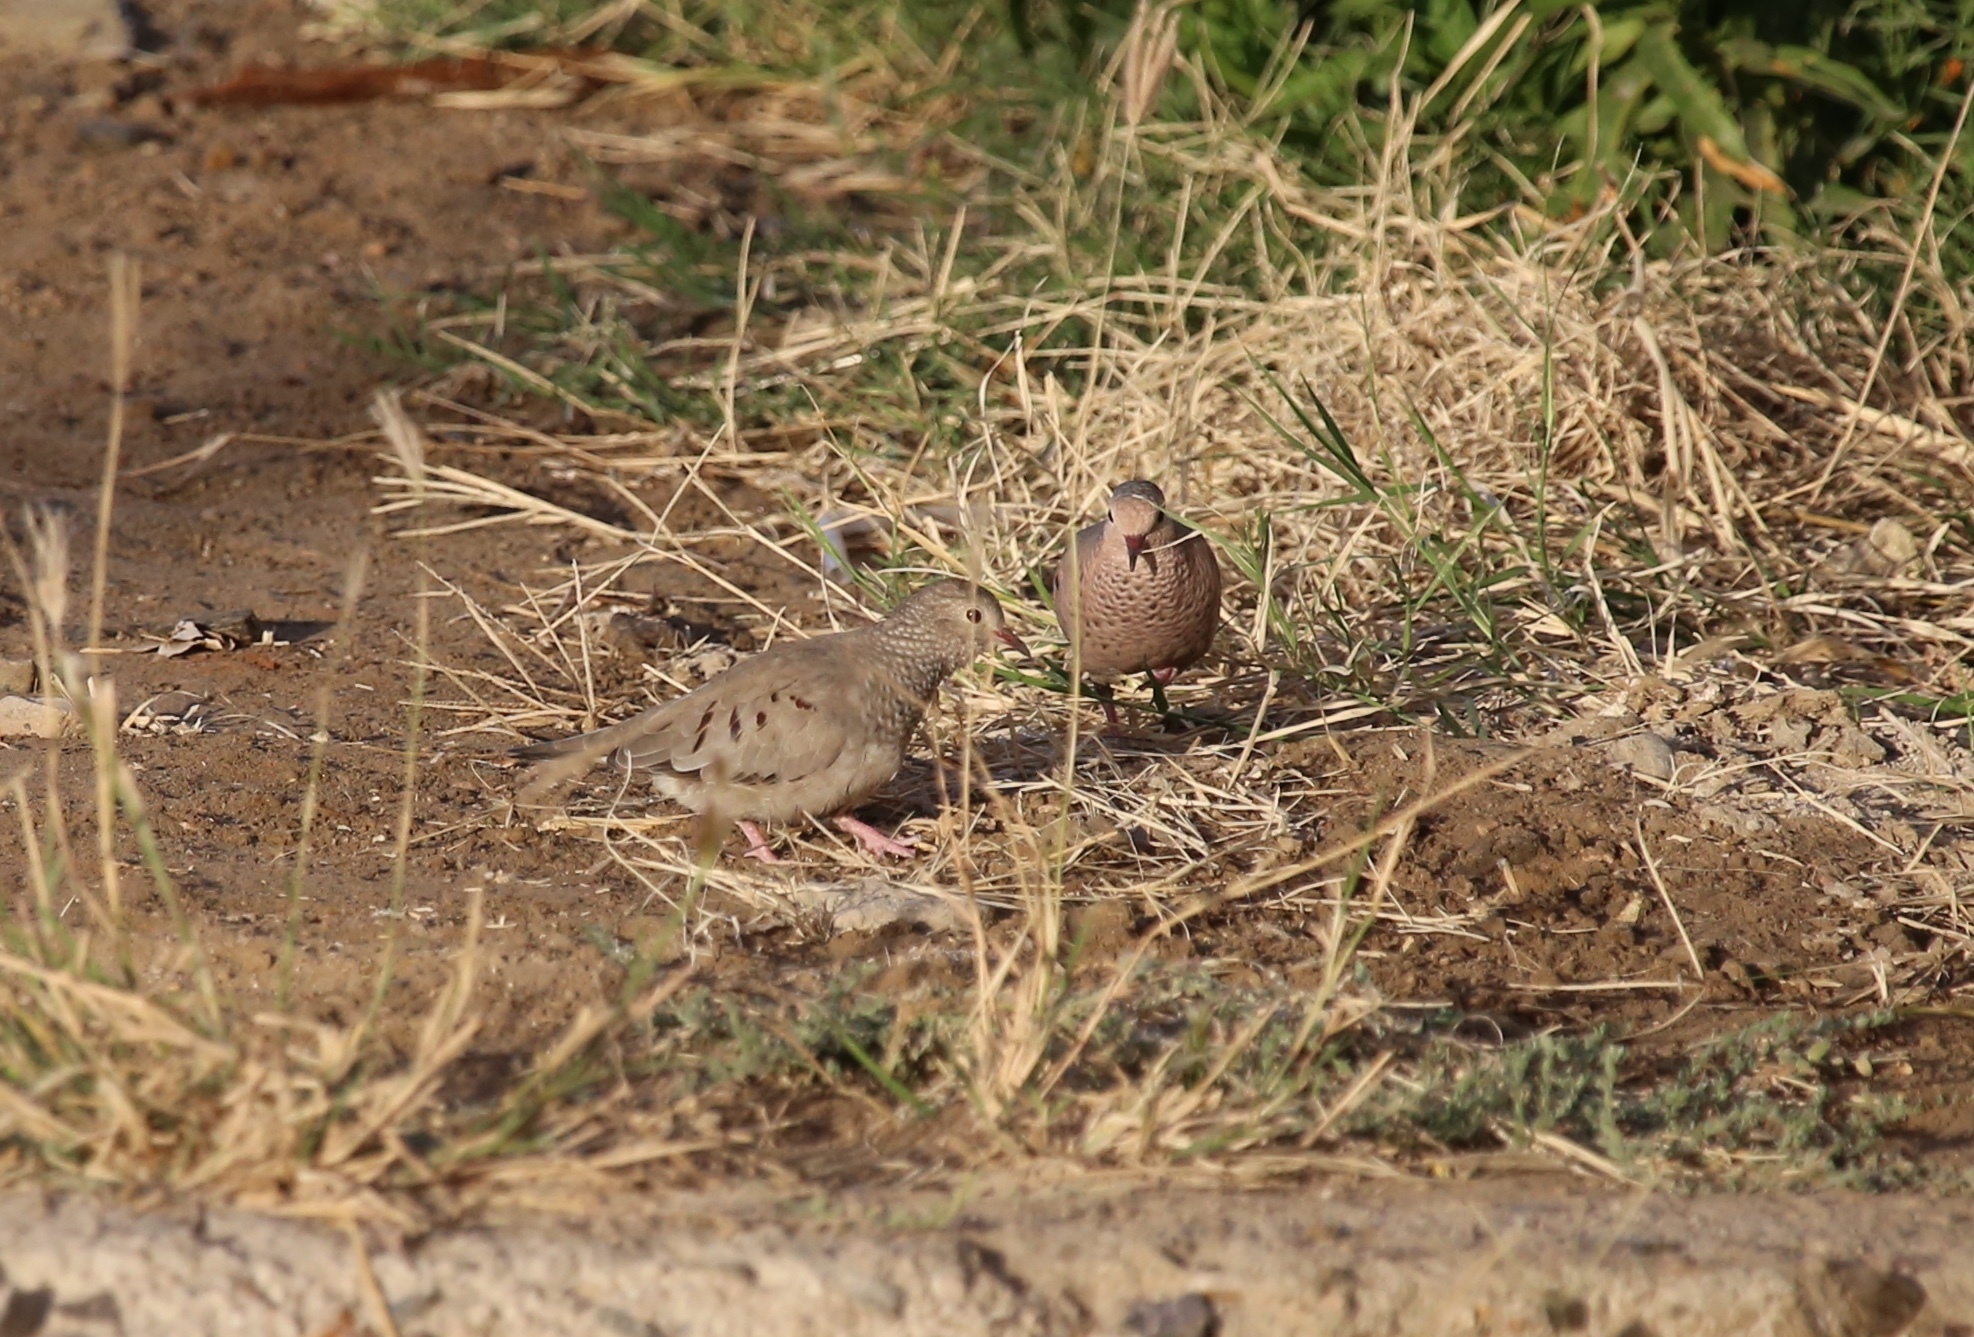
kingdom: Animalia
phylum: Chordata
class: Aves
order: Columbiformes
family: Columbidae
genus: Columbina
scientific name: Columbina passerina
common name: Common ground-dove
